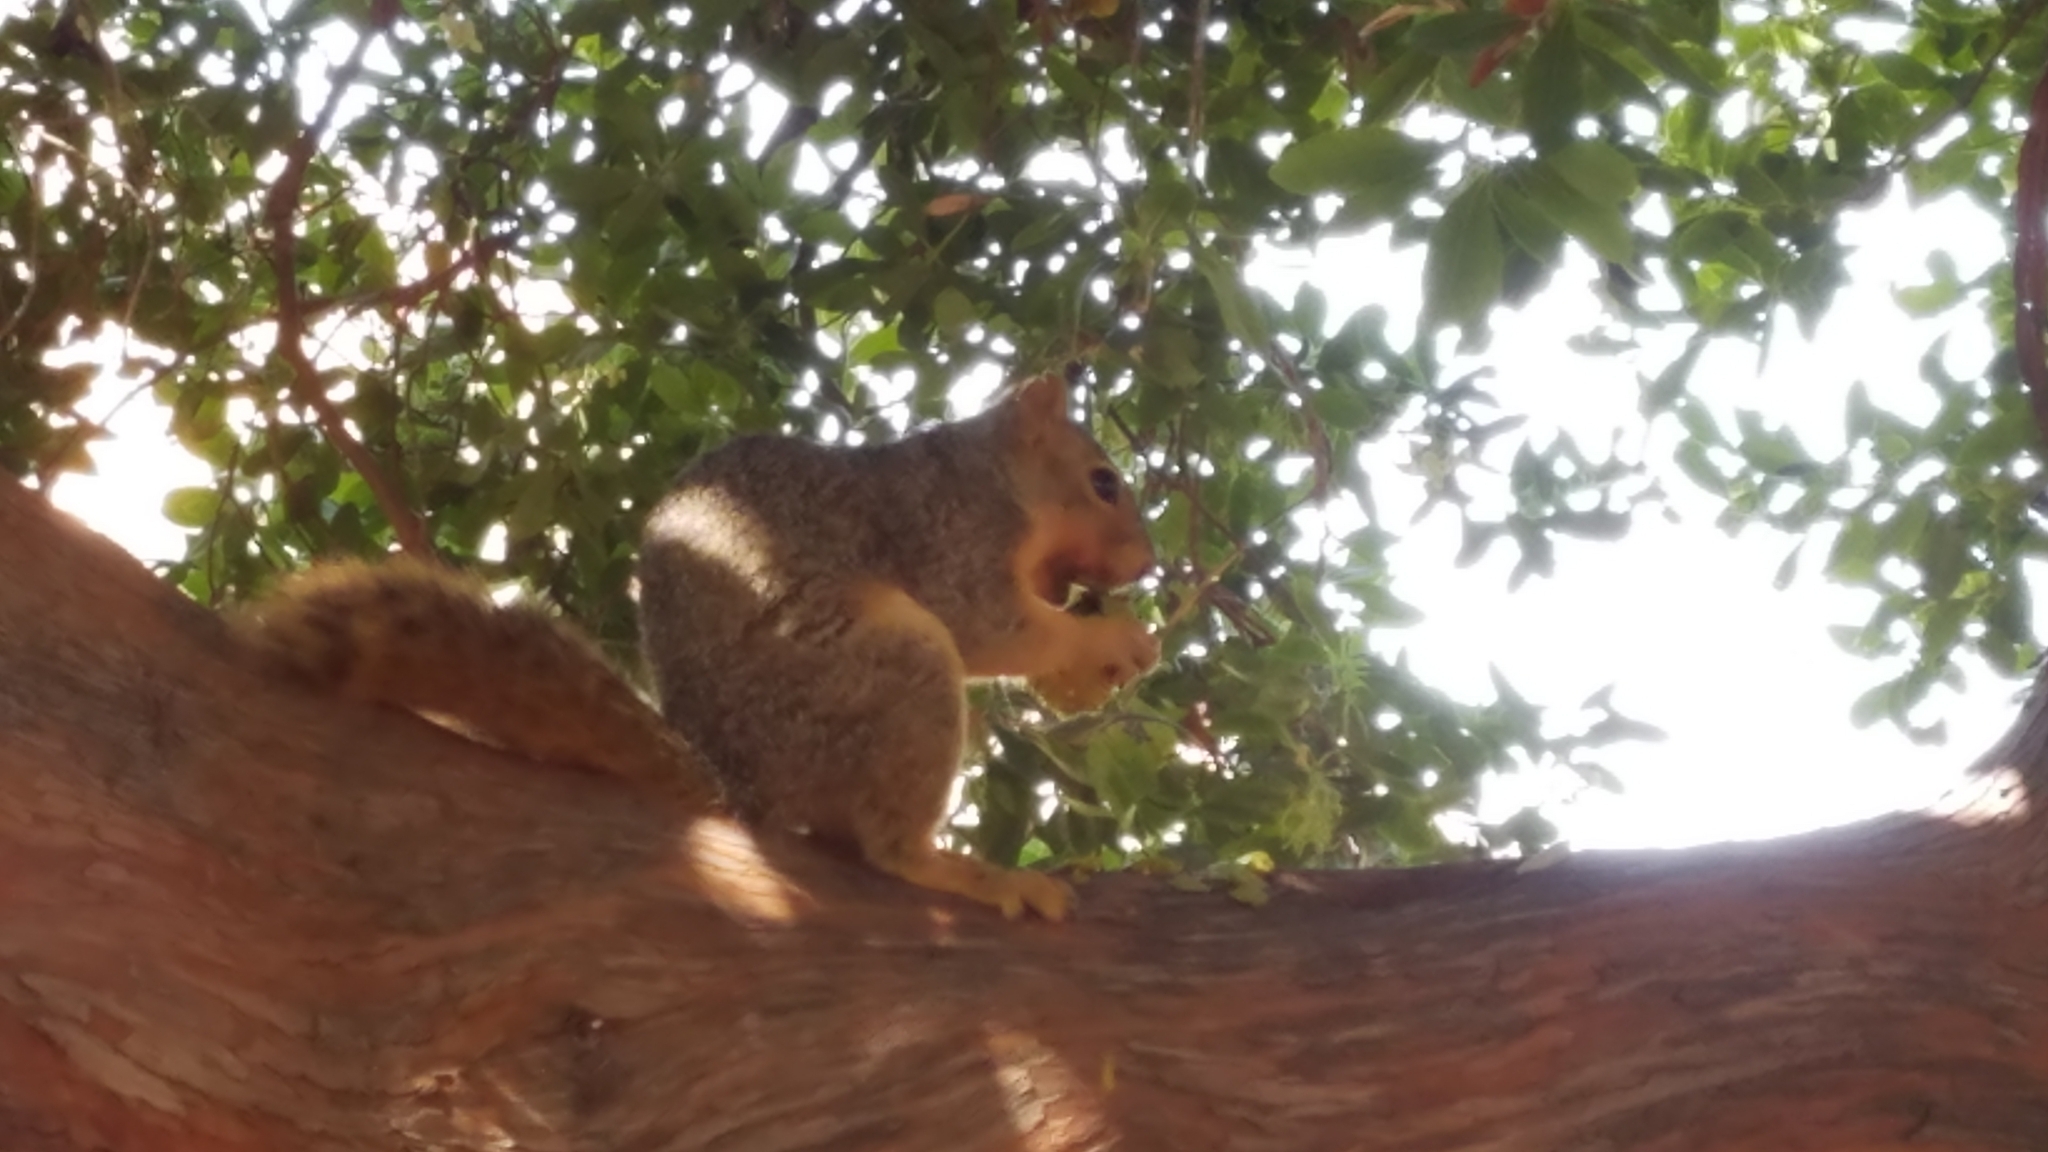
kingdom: Animalia
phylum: Chordata
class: Mammalia
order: Rodentia
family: Sciuridae
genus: Sciurus
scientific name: Sciurus niger
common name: Fox squirrel
